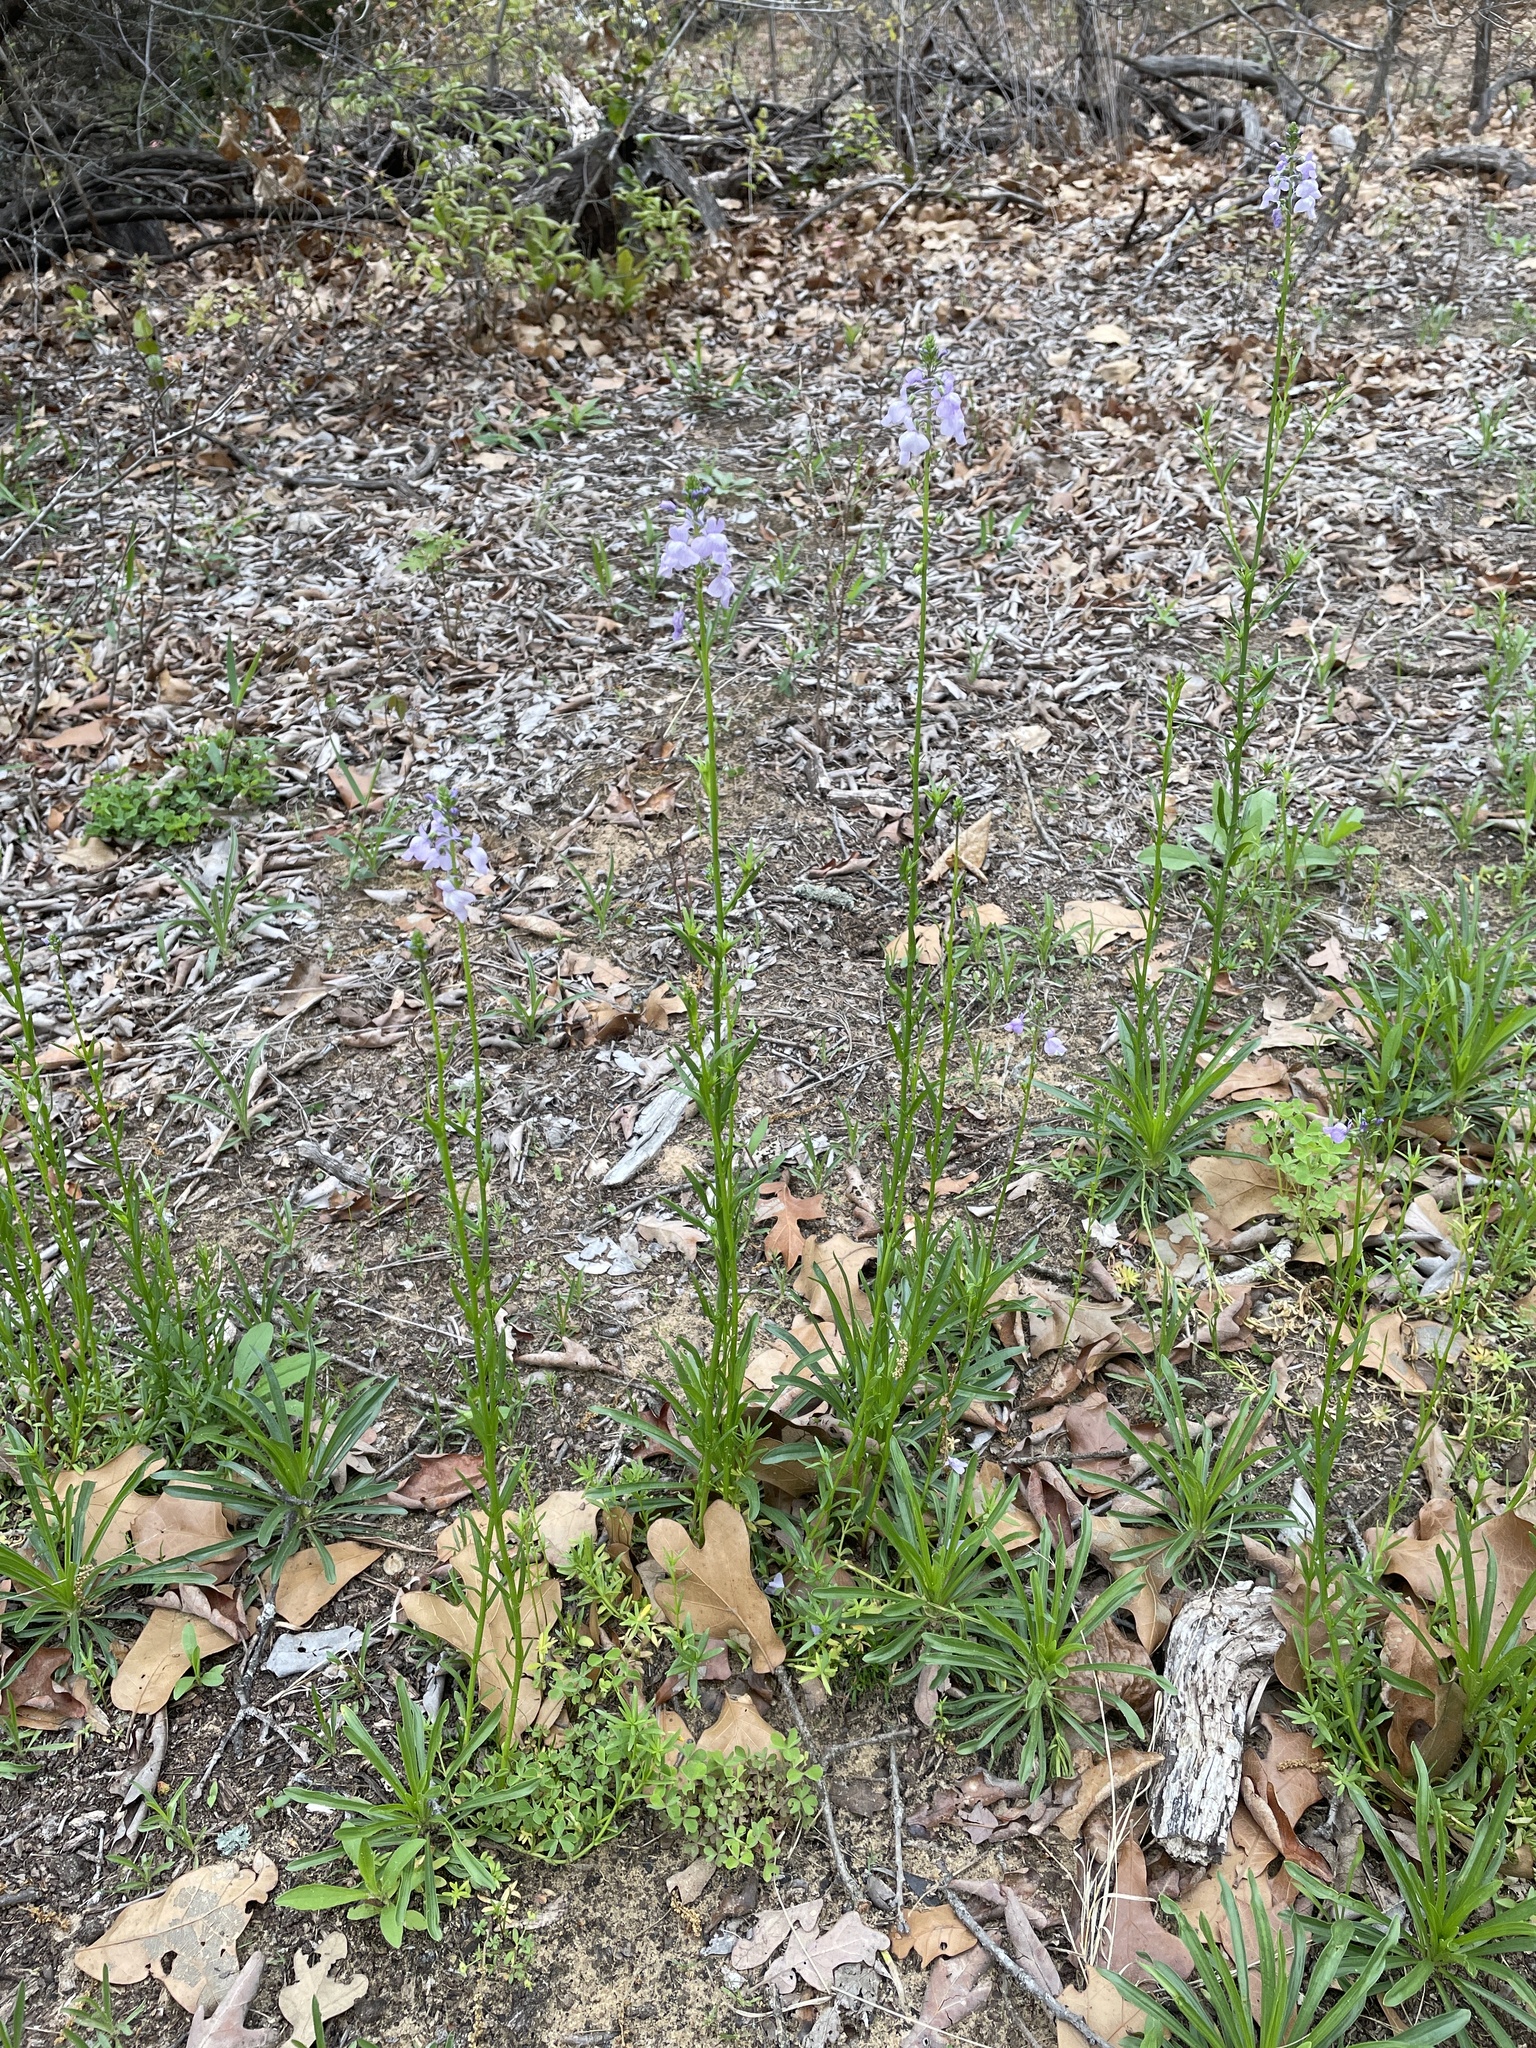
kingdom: Plantae
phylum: Tracheophyta
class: Magnoliopsida
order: Lamiales
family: Plantaginaceae
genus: Nuttallanthus
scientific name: Nuttallanthus texanus
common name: Texas toadflax
